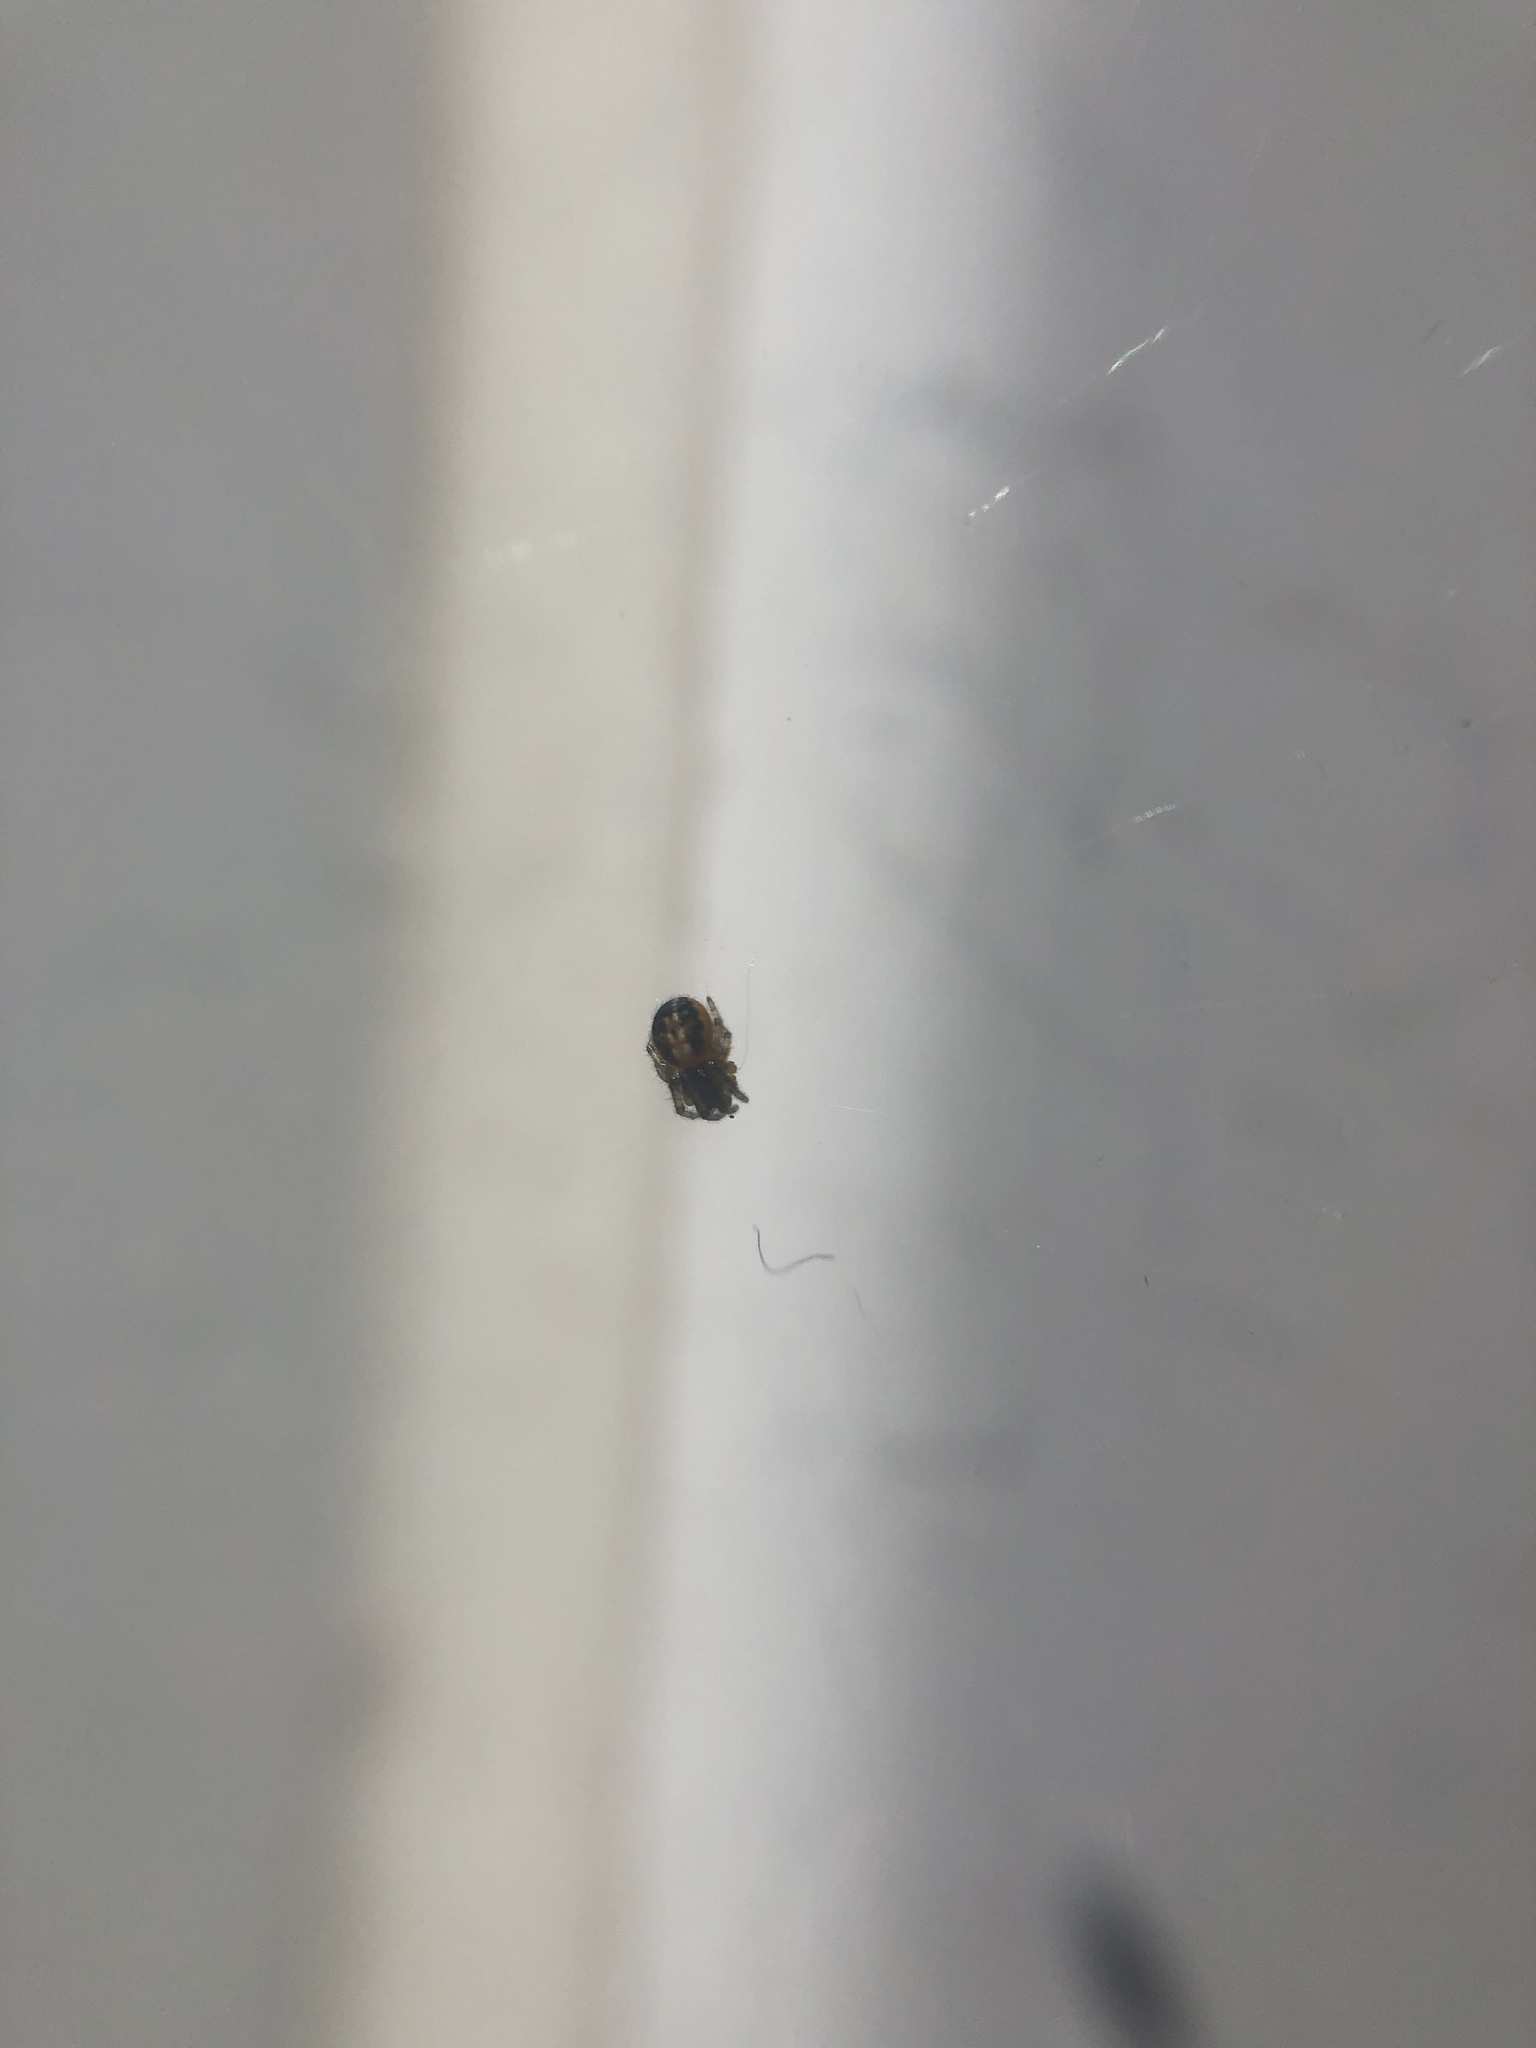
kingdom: Animalia
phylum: Arthropoda
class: Arachnida
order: Araneae
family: Araneidae
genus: Zygiella
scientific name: Zygiella x-notata
